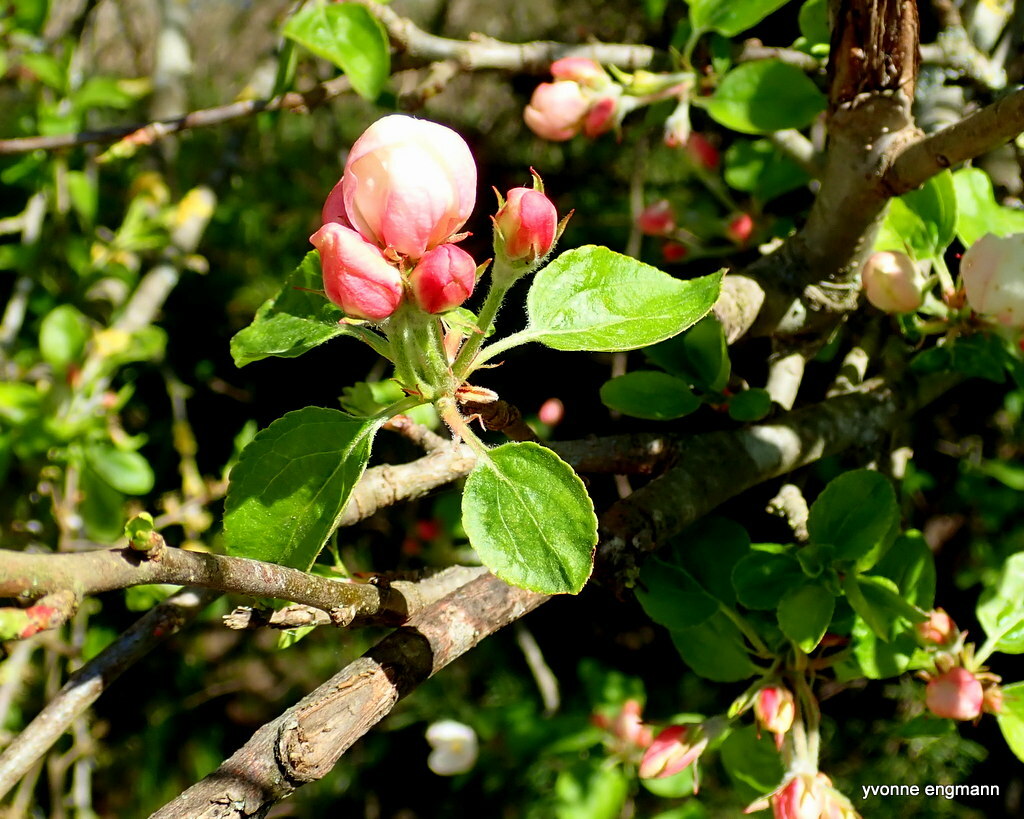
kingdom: Plantae
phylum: Tracheophyta
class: Magnoliopsida
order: Rosales
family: Rosaceae
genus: Malus
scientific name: Malus domestica
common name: Apple
